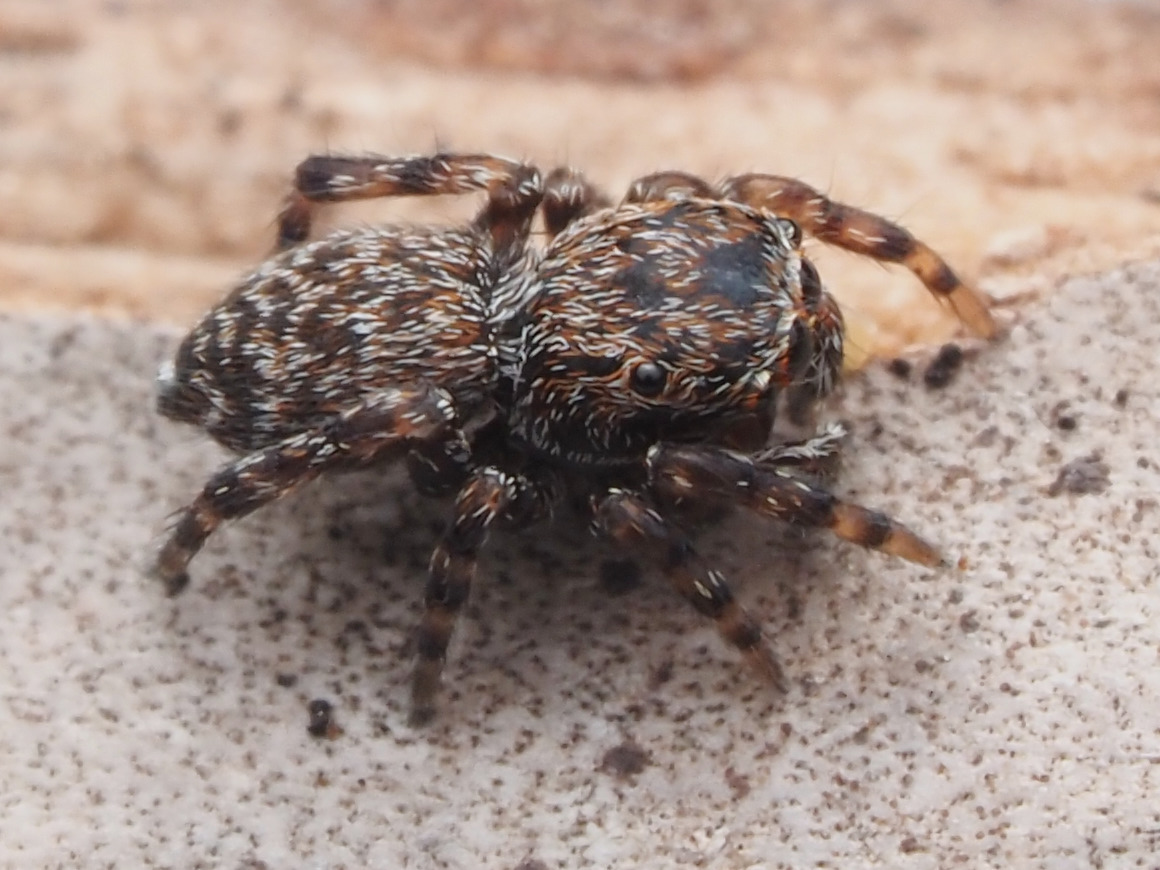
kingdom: Animalia
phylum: Arthropoda
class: Arachnida
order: Araneae
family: Salticidae
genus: Attinella
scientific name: Attinella concolor
